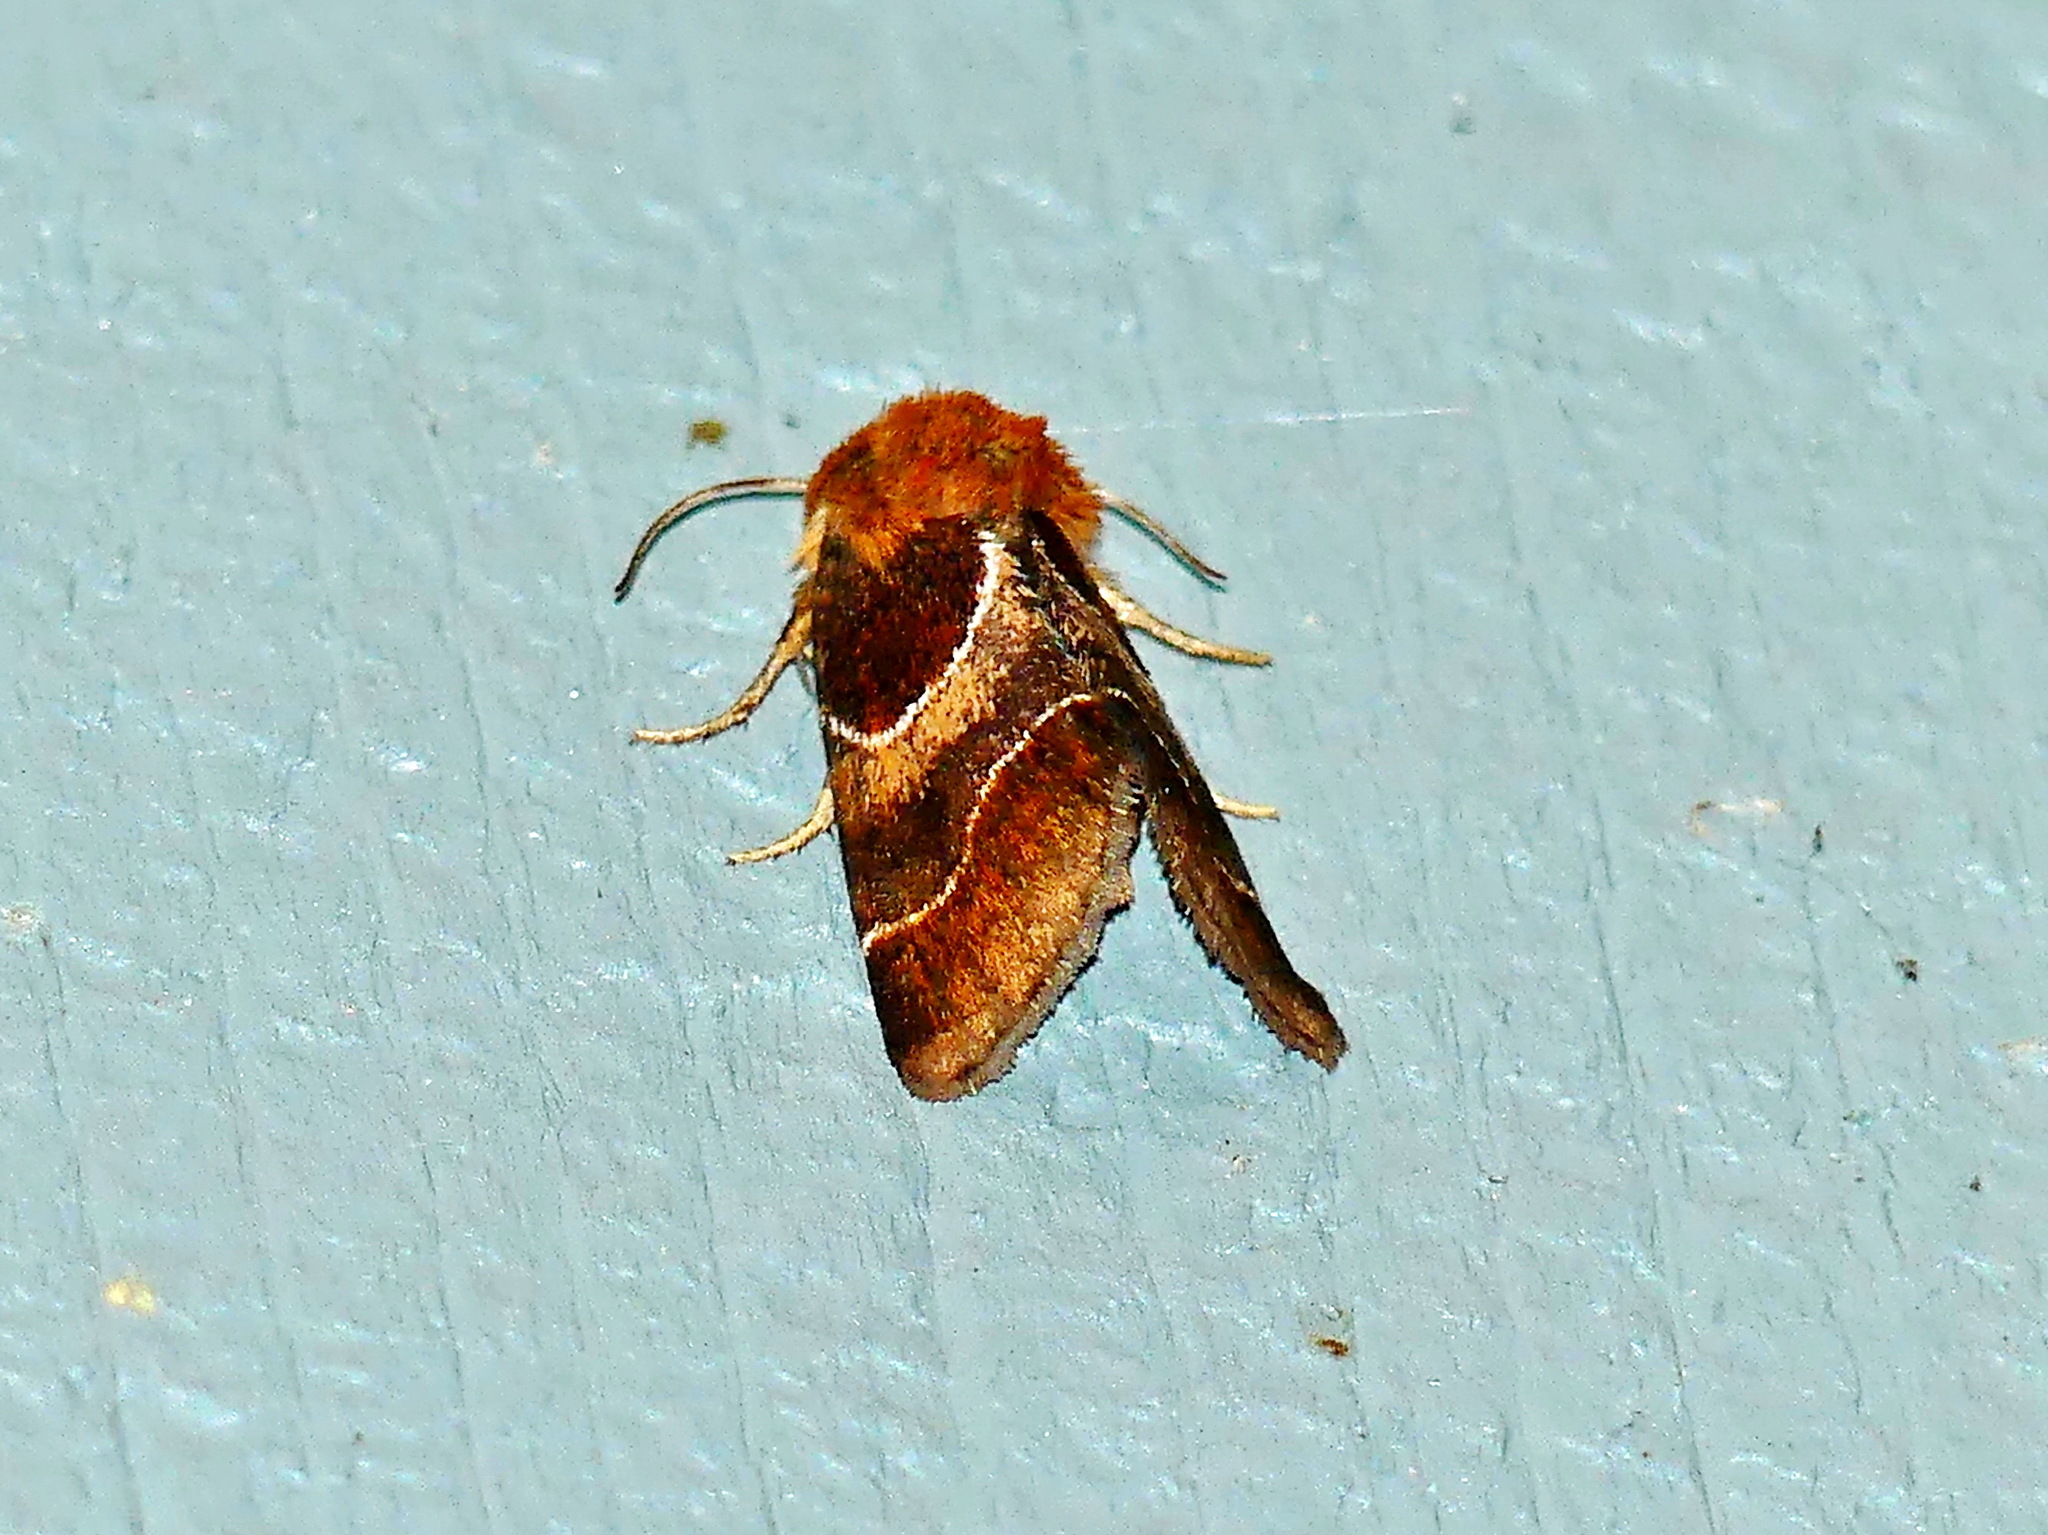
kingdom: Animalia
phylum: Arthropoda
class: Insecta
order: Lepidoptera
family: Noctuidae
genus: Schinia
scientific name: Schinia arcigera
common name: Arcigera flower moth
